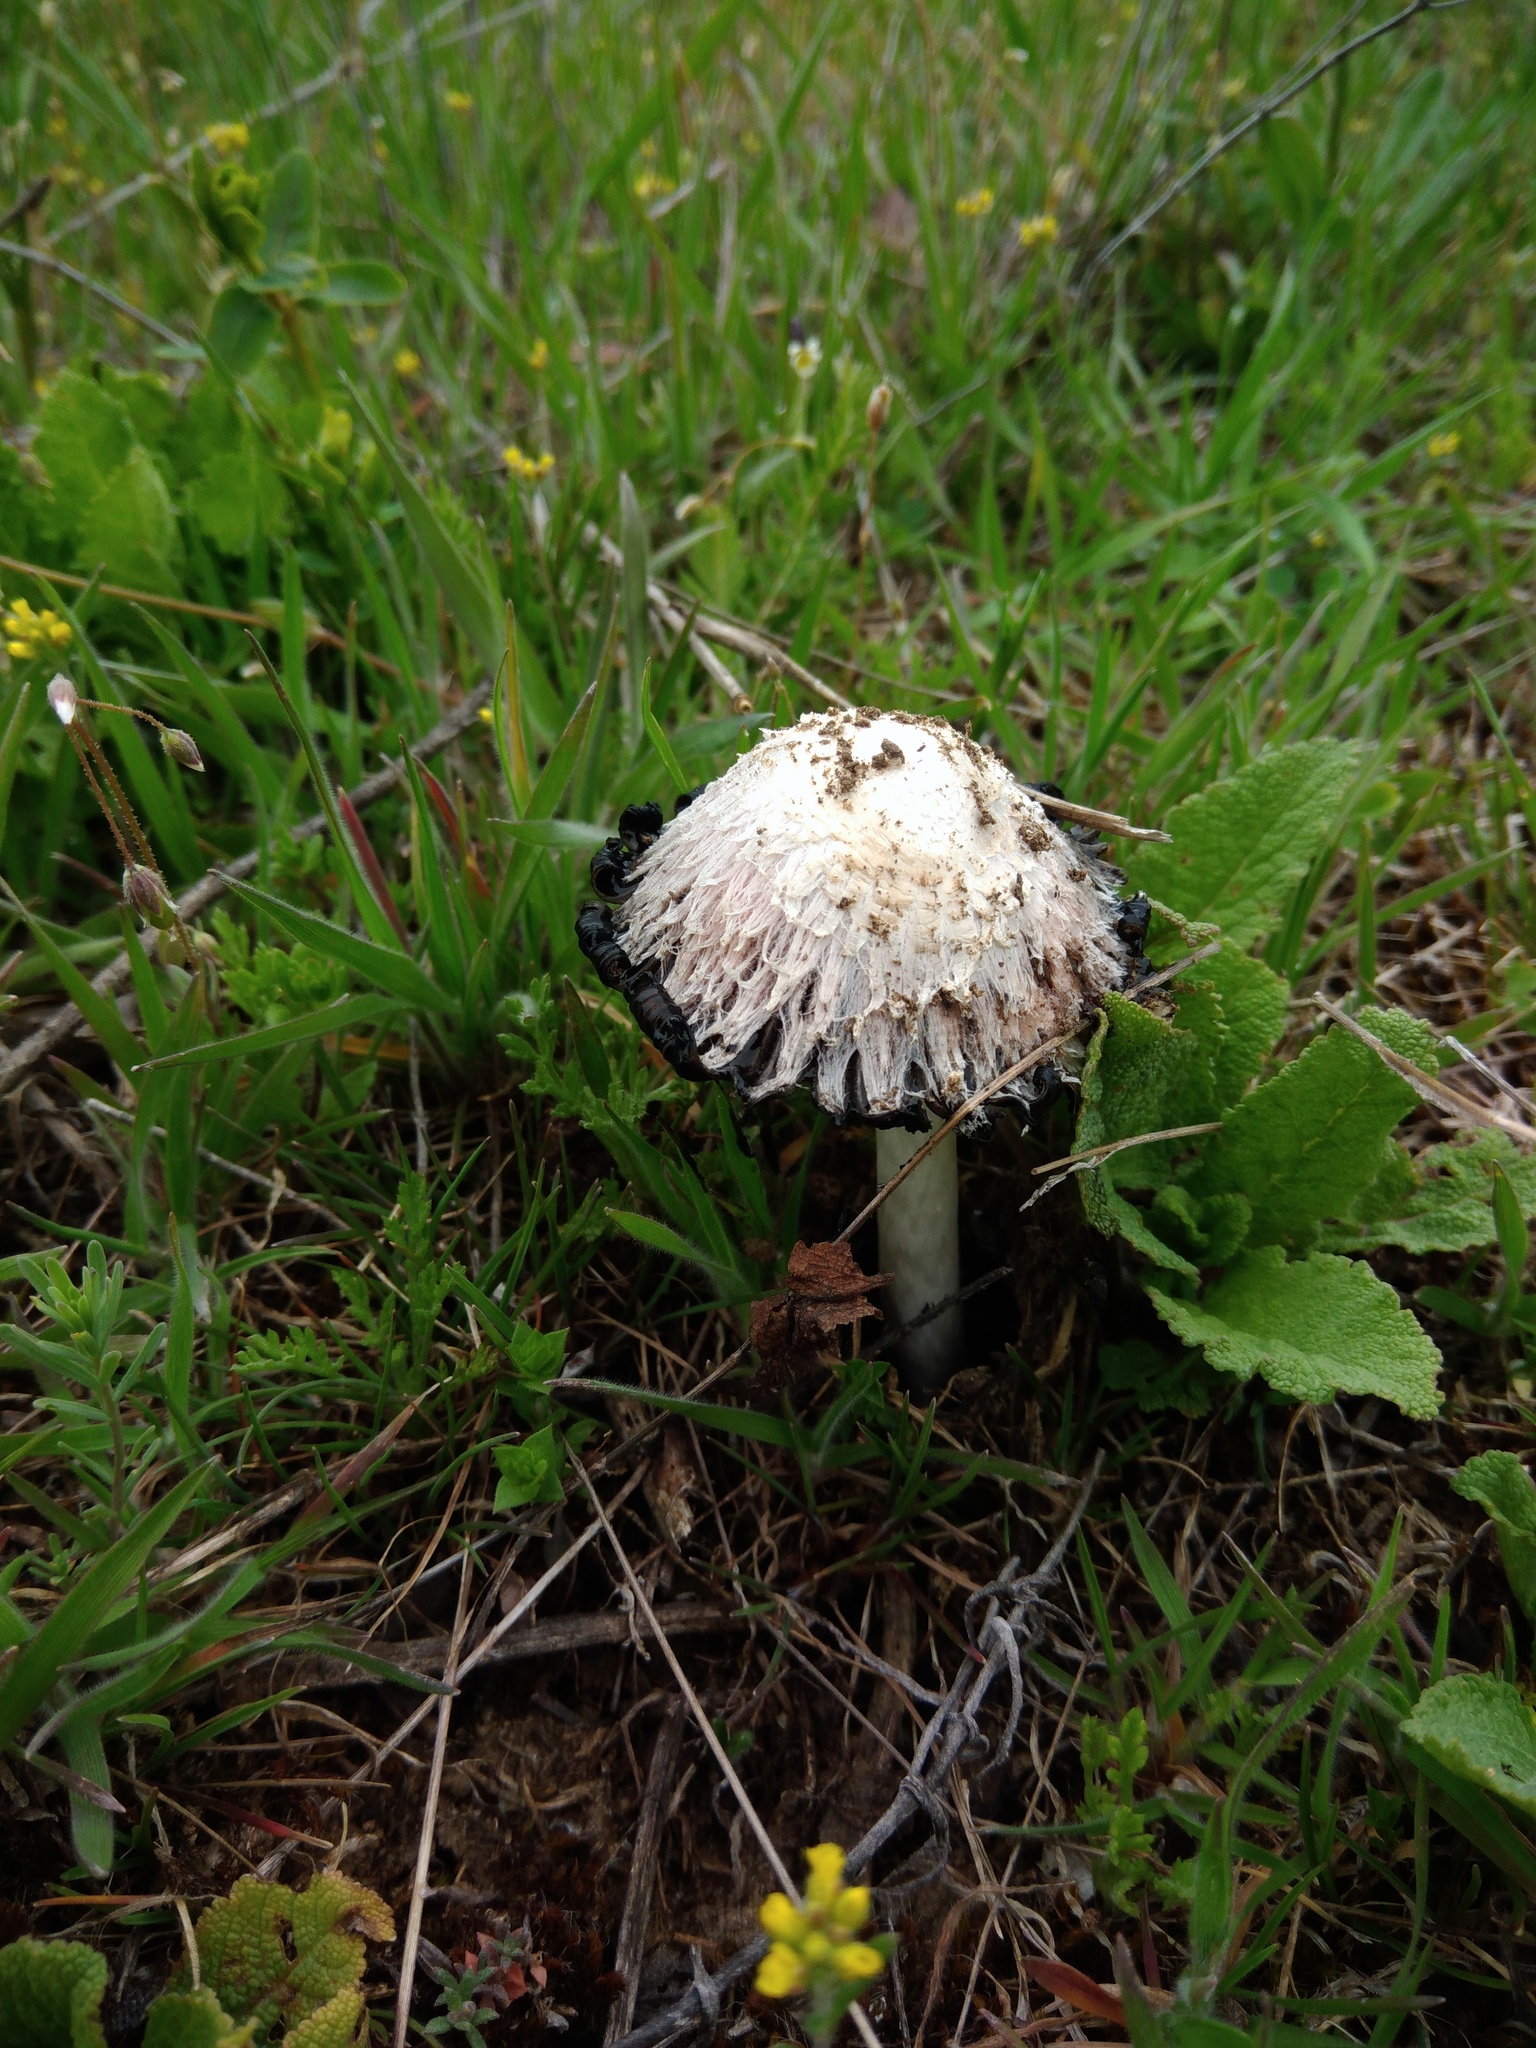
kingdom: Fungi
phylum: Basidiomycota
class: Agaricomycetes
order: Agaricales
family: Agaricaceae
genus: Coprinus
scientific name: Coprinus comatus
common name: Lawyer's wig
